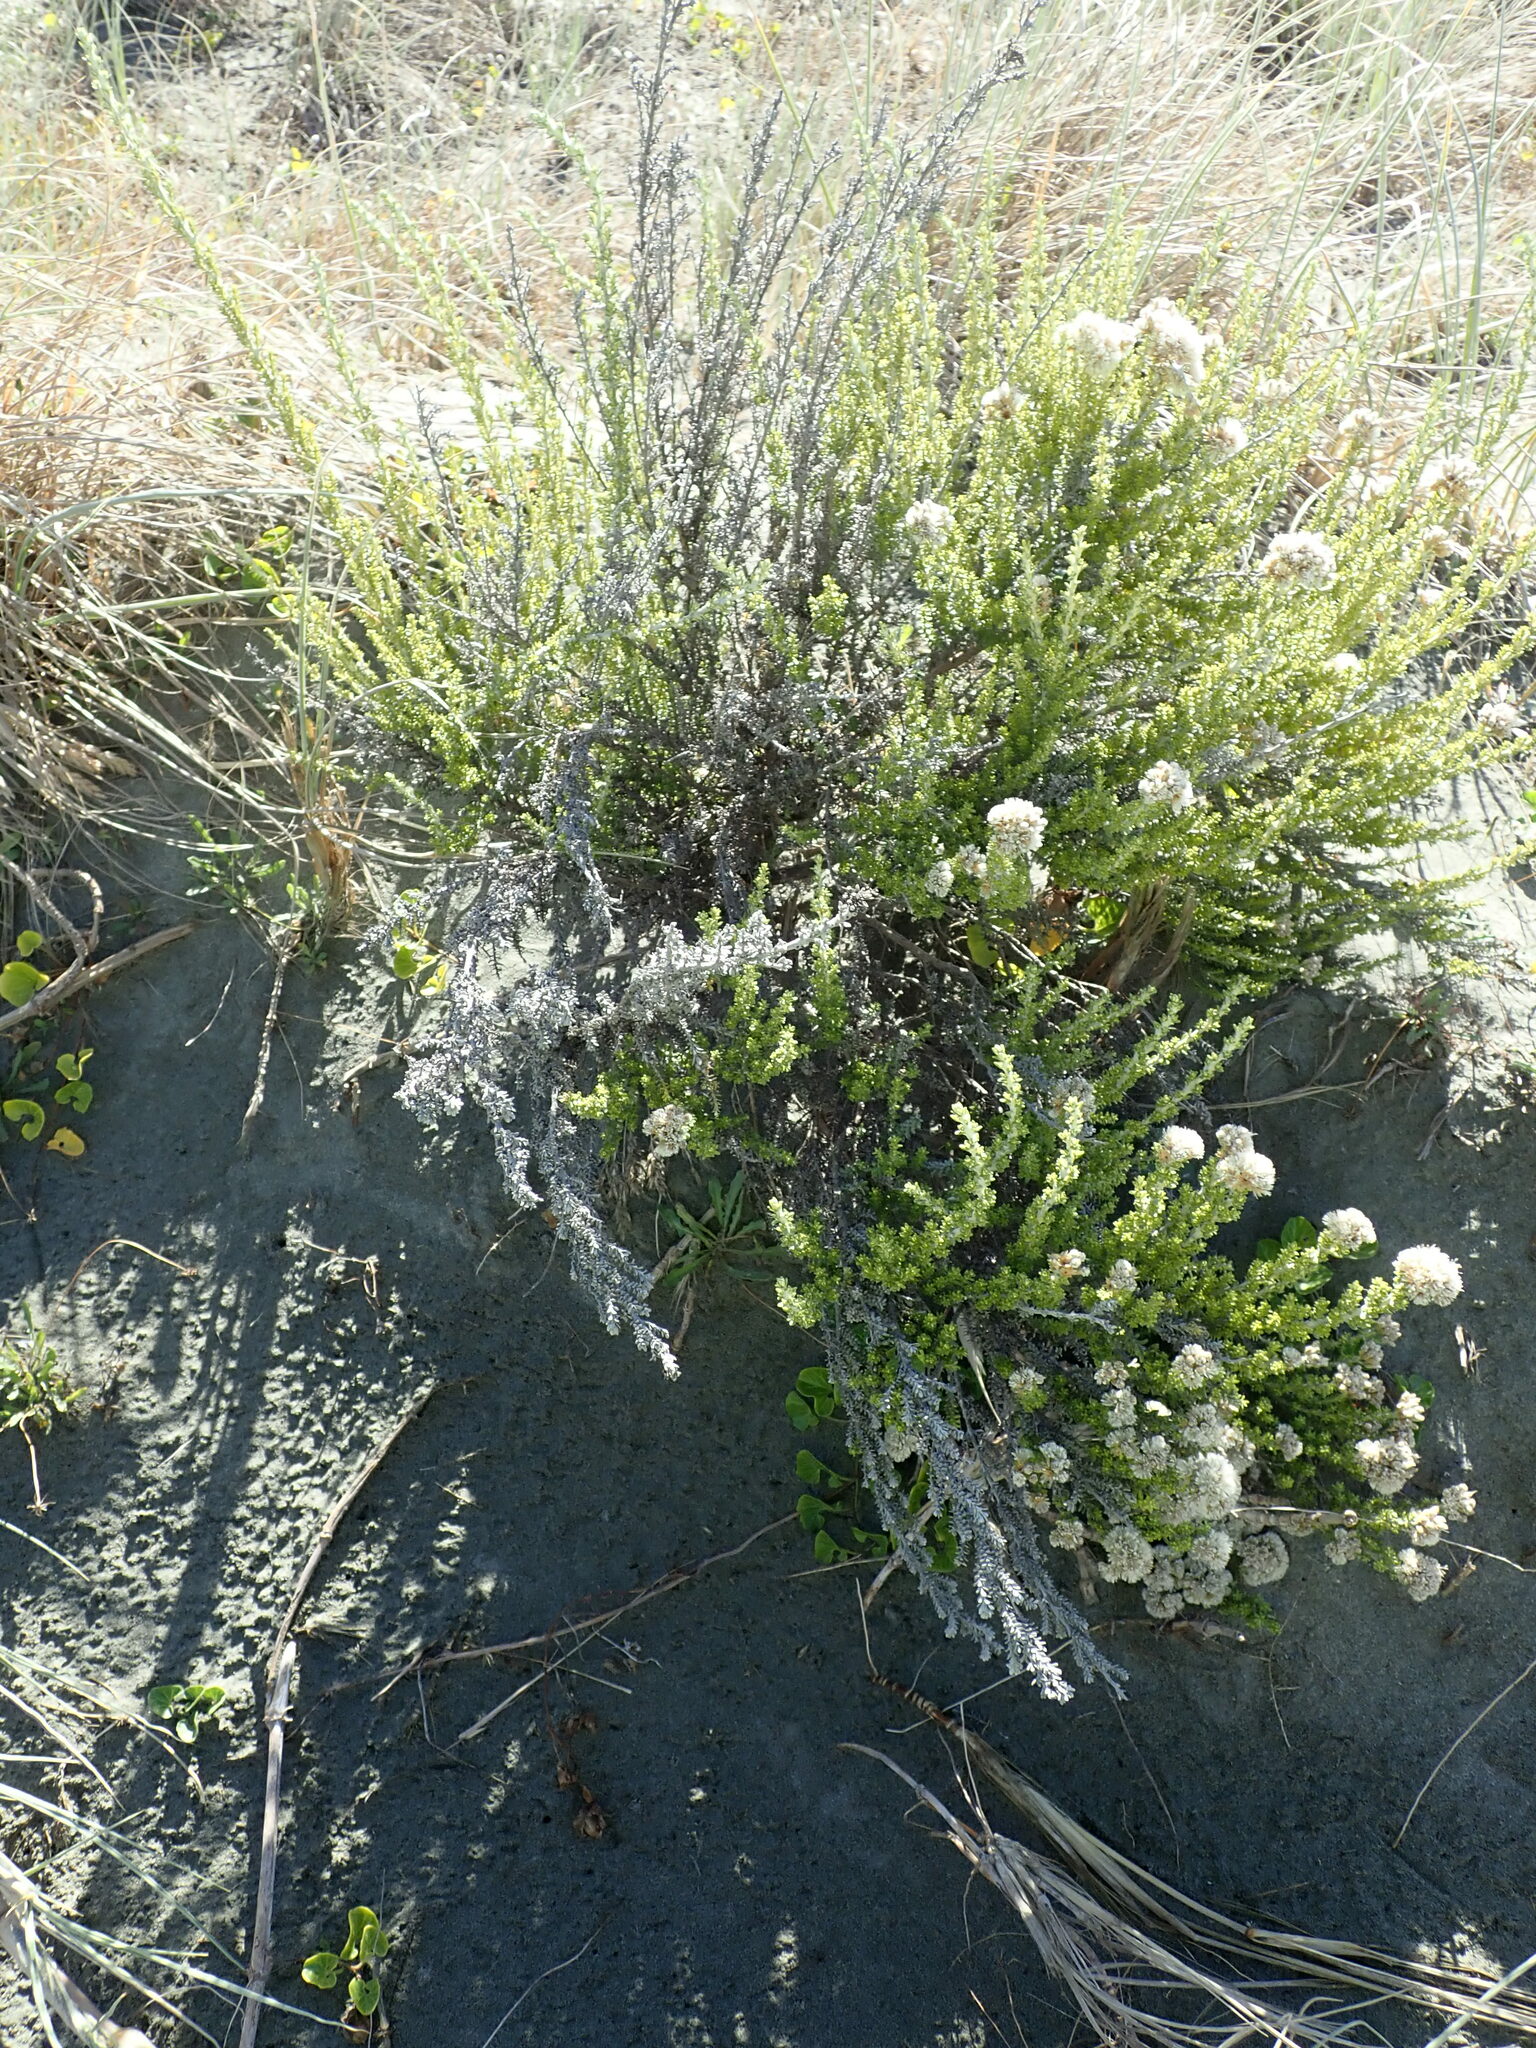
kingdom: Plantae
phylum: Tracheophyta
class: Magnoliopsida
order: Asterales
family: Asteraceae
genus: Ozothamnus
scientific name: Ozothamnus leptophyllus
